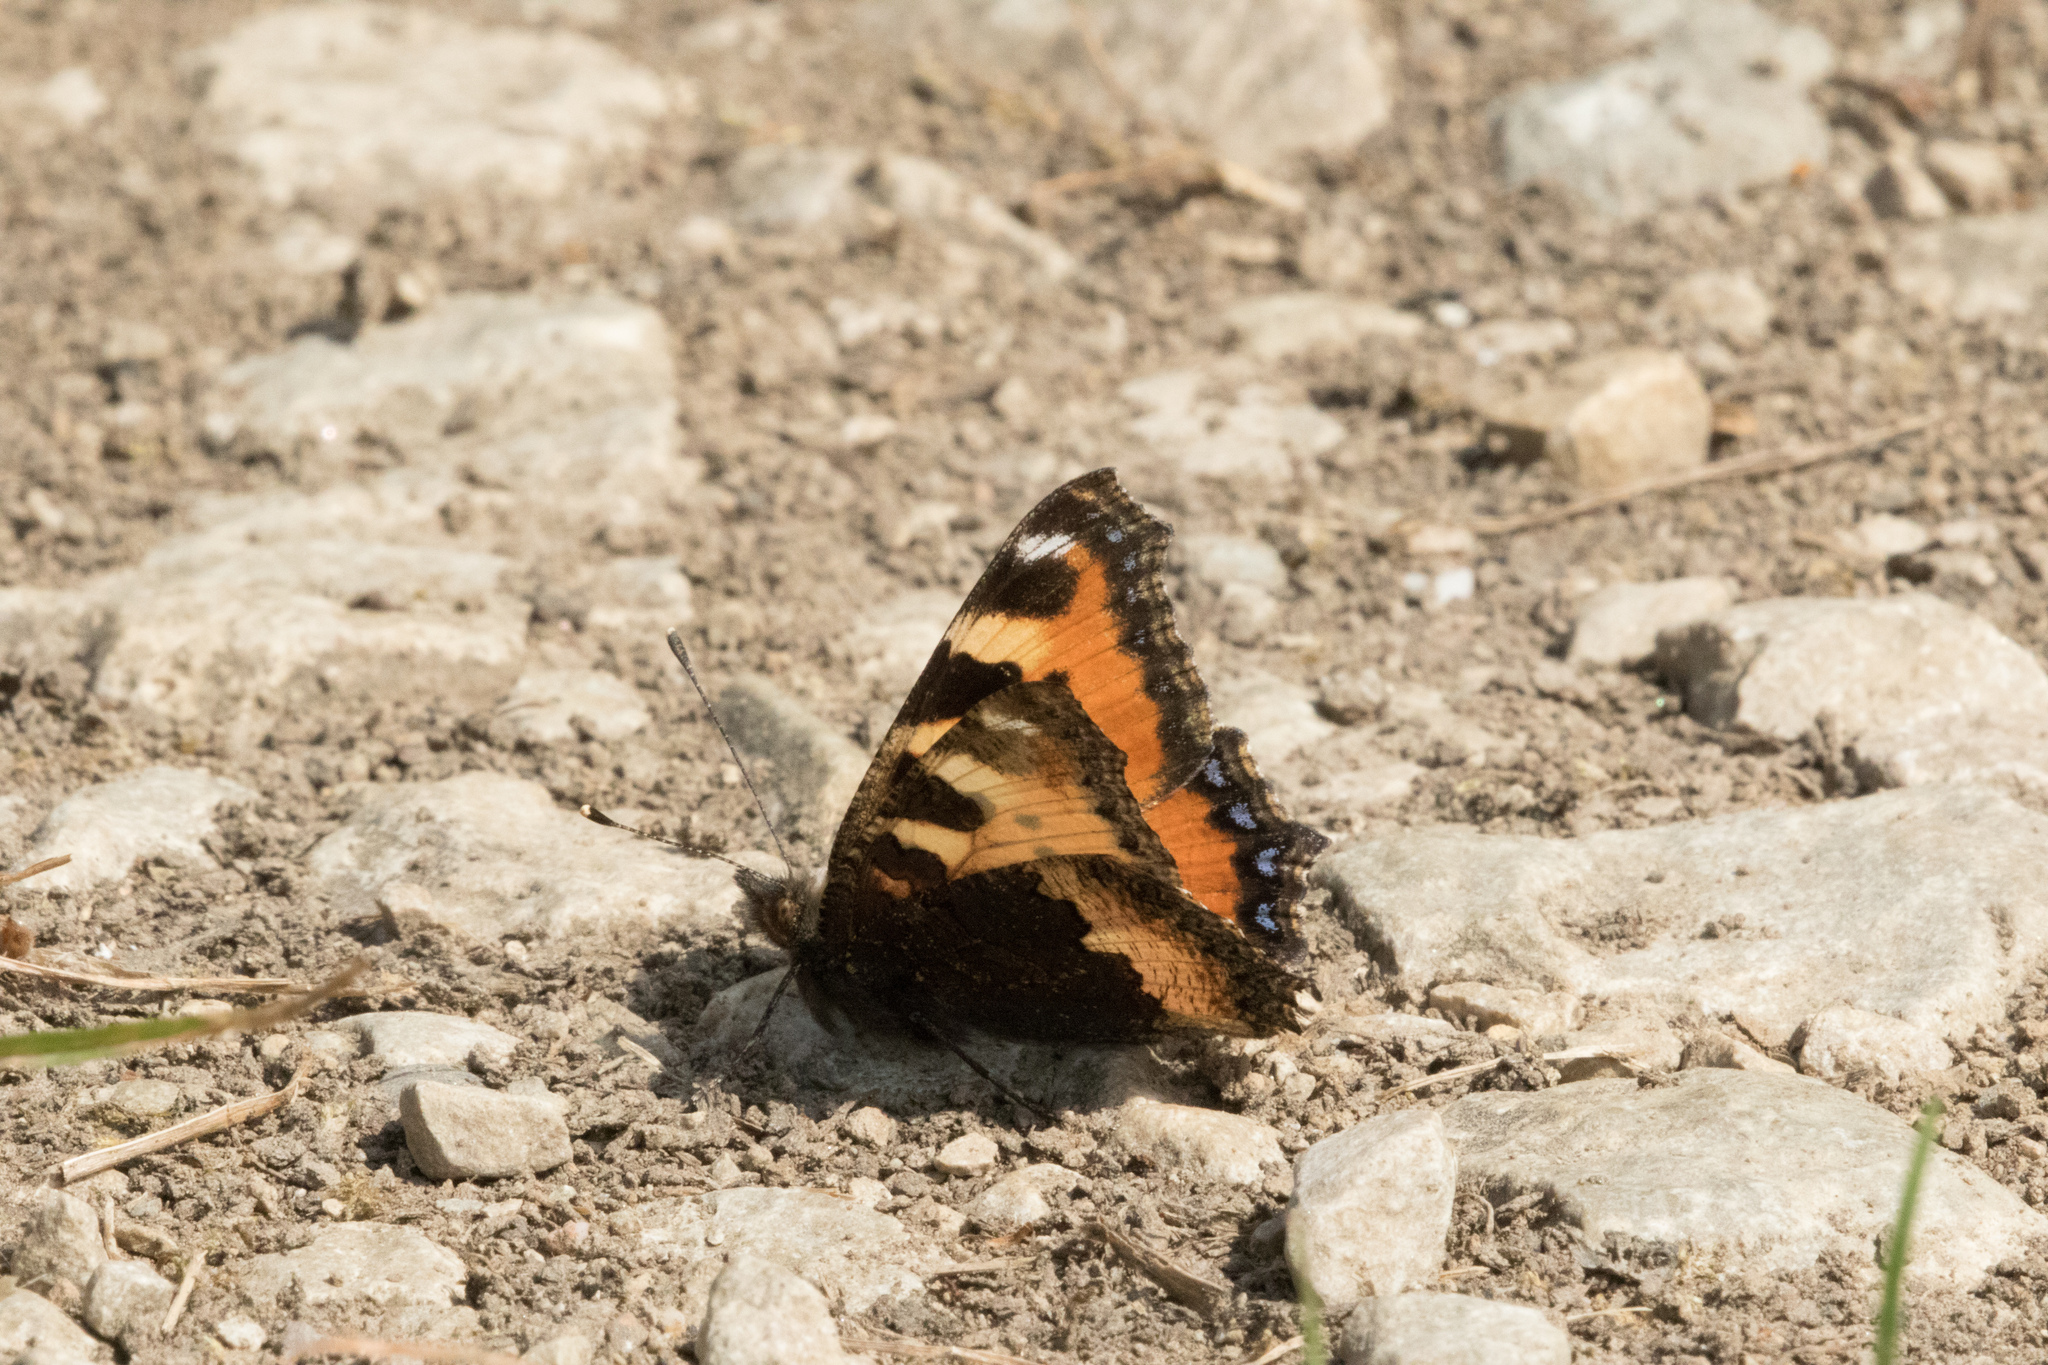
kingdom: Animalia
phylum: Arthropoda
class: Insecta
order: Lepidoptera
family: Nymphalidae
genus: Aglais
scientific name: Aglais urticae
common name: Small tortoiseshell
